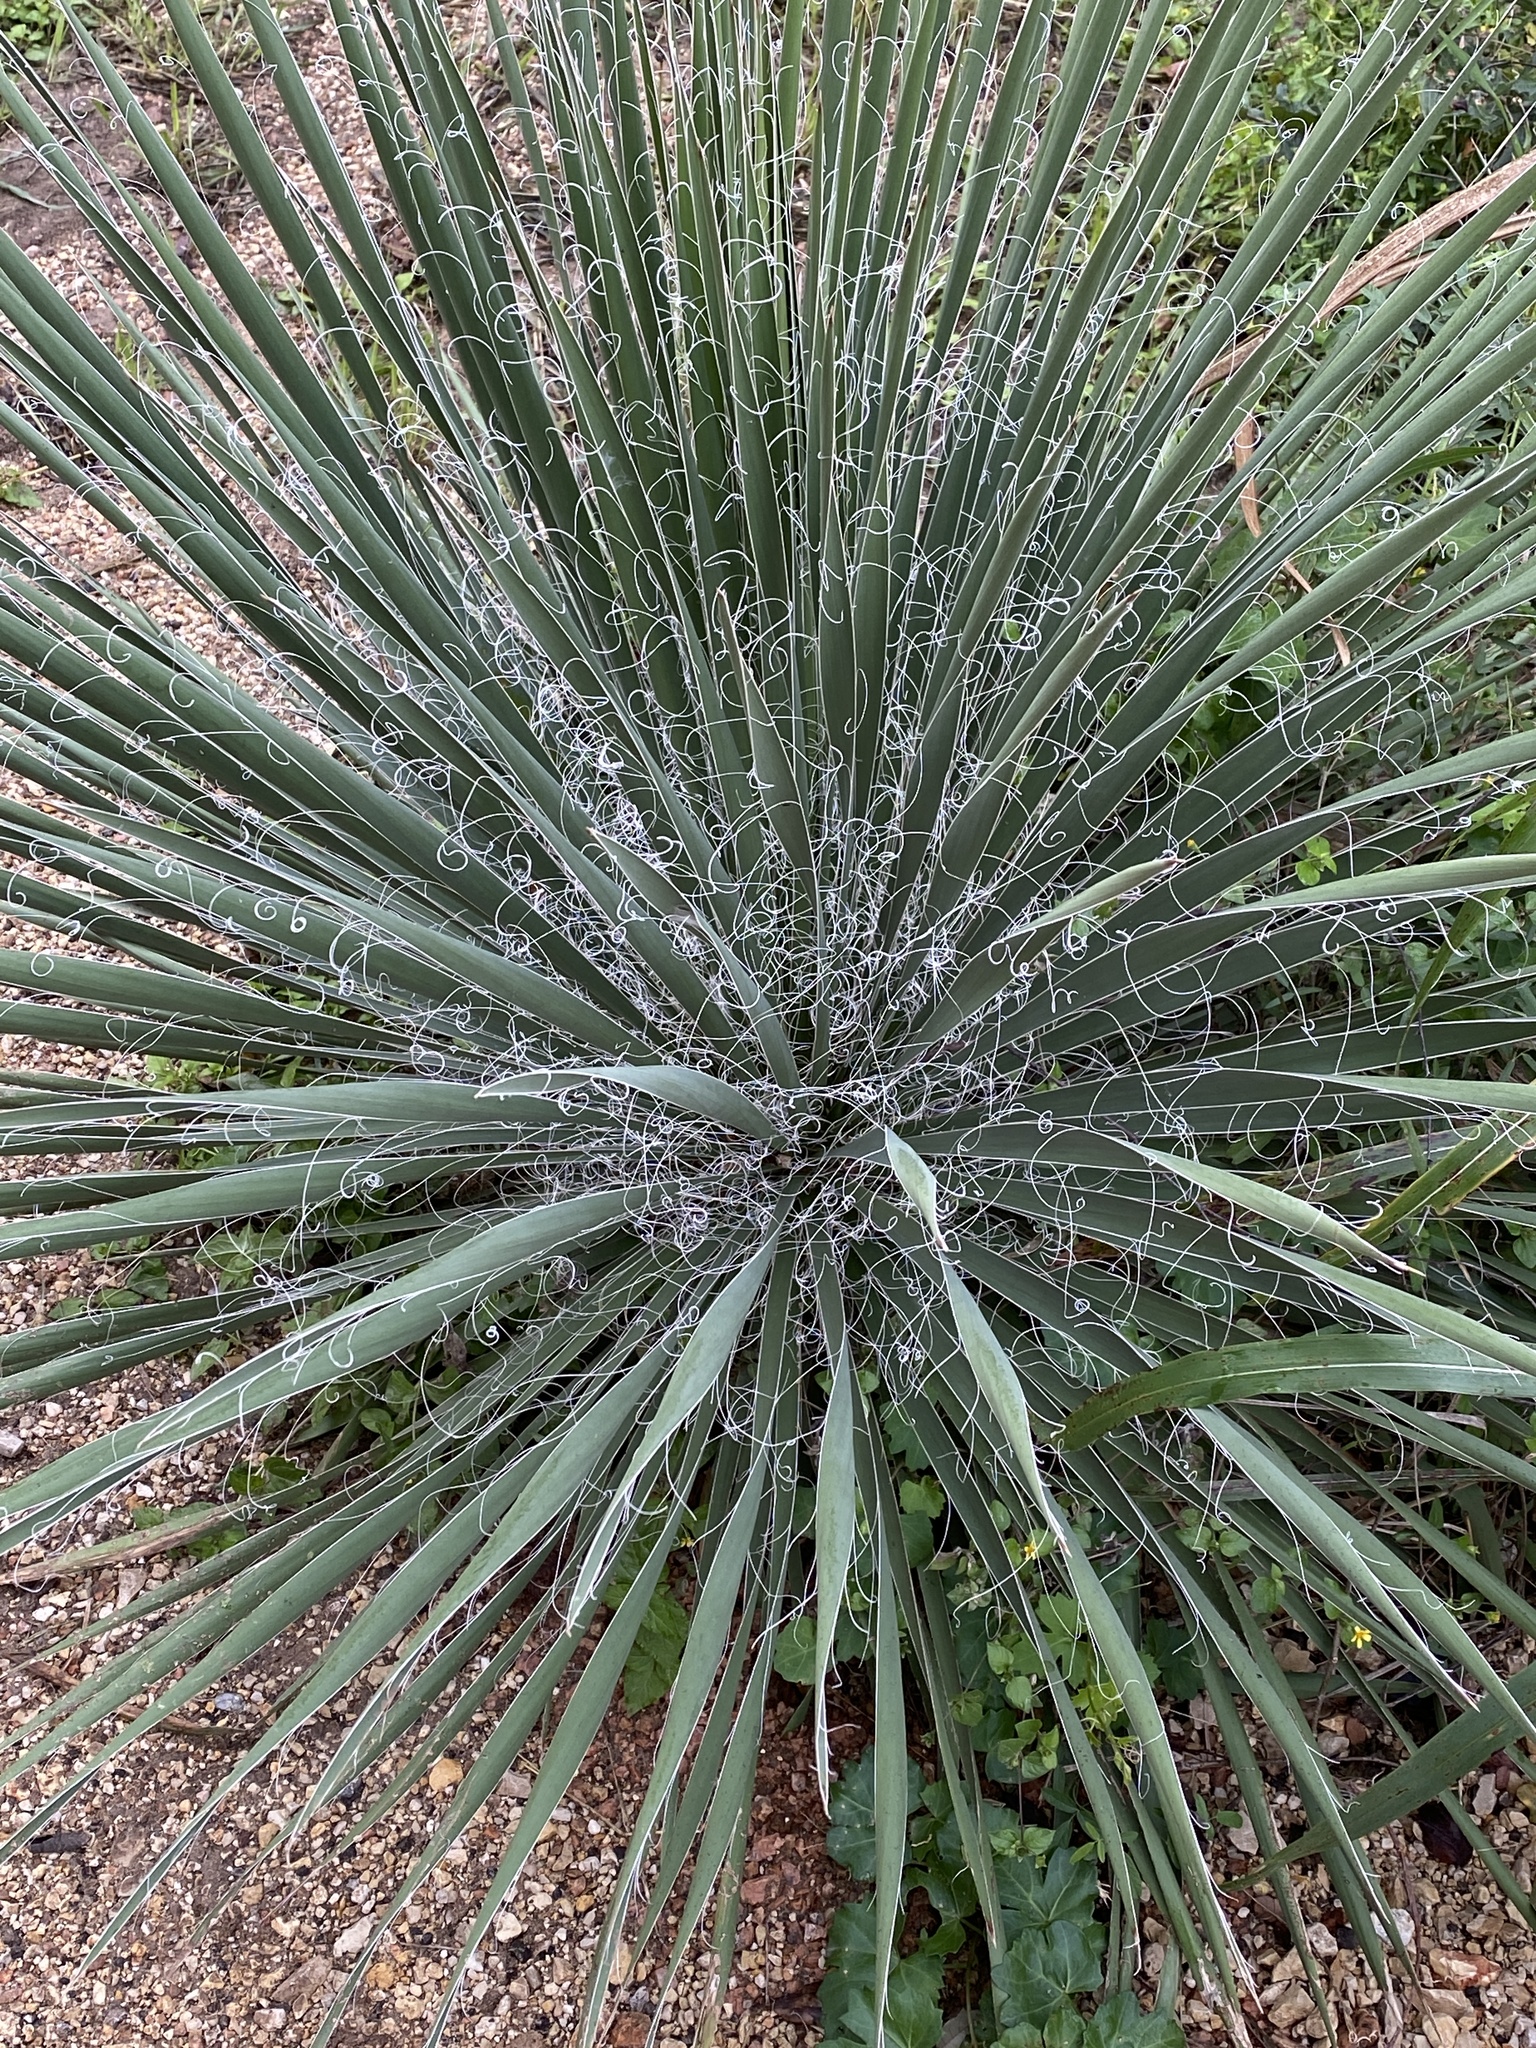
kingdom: Plantae
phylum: Tracheophyta
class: Liliopsida
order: Asparagales
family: Asparagaceae
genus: Yucca
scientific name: Yucca constricta
